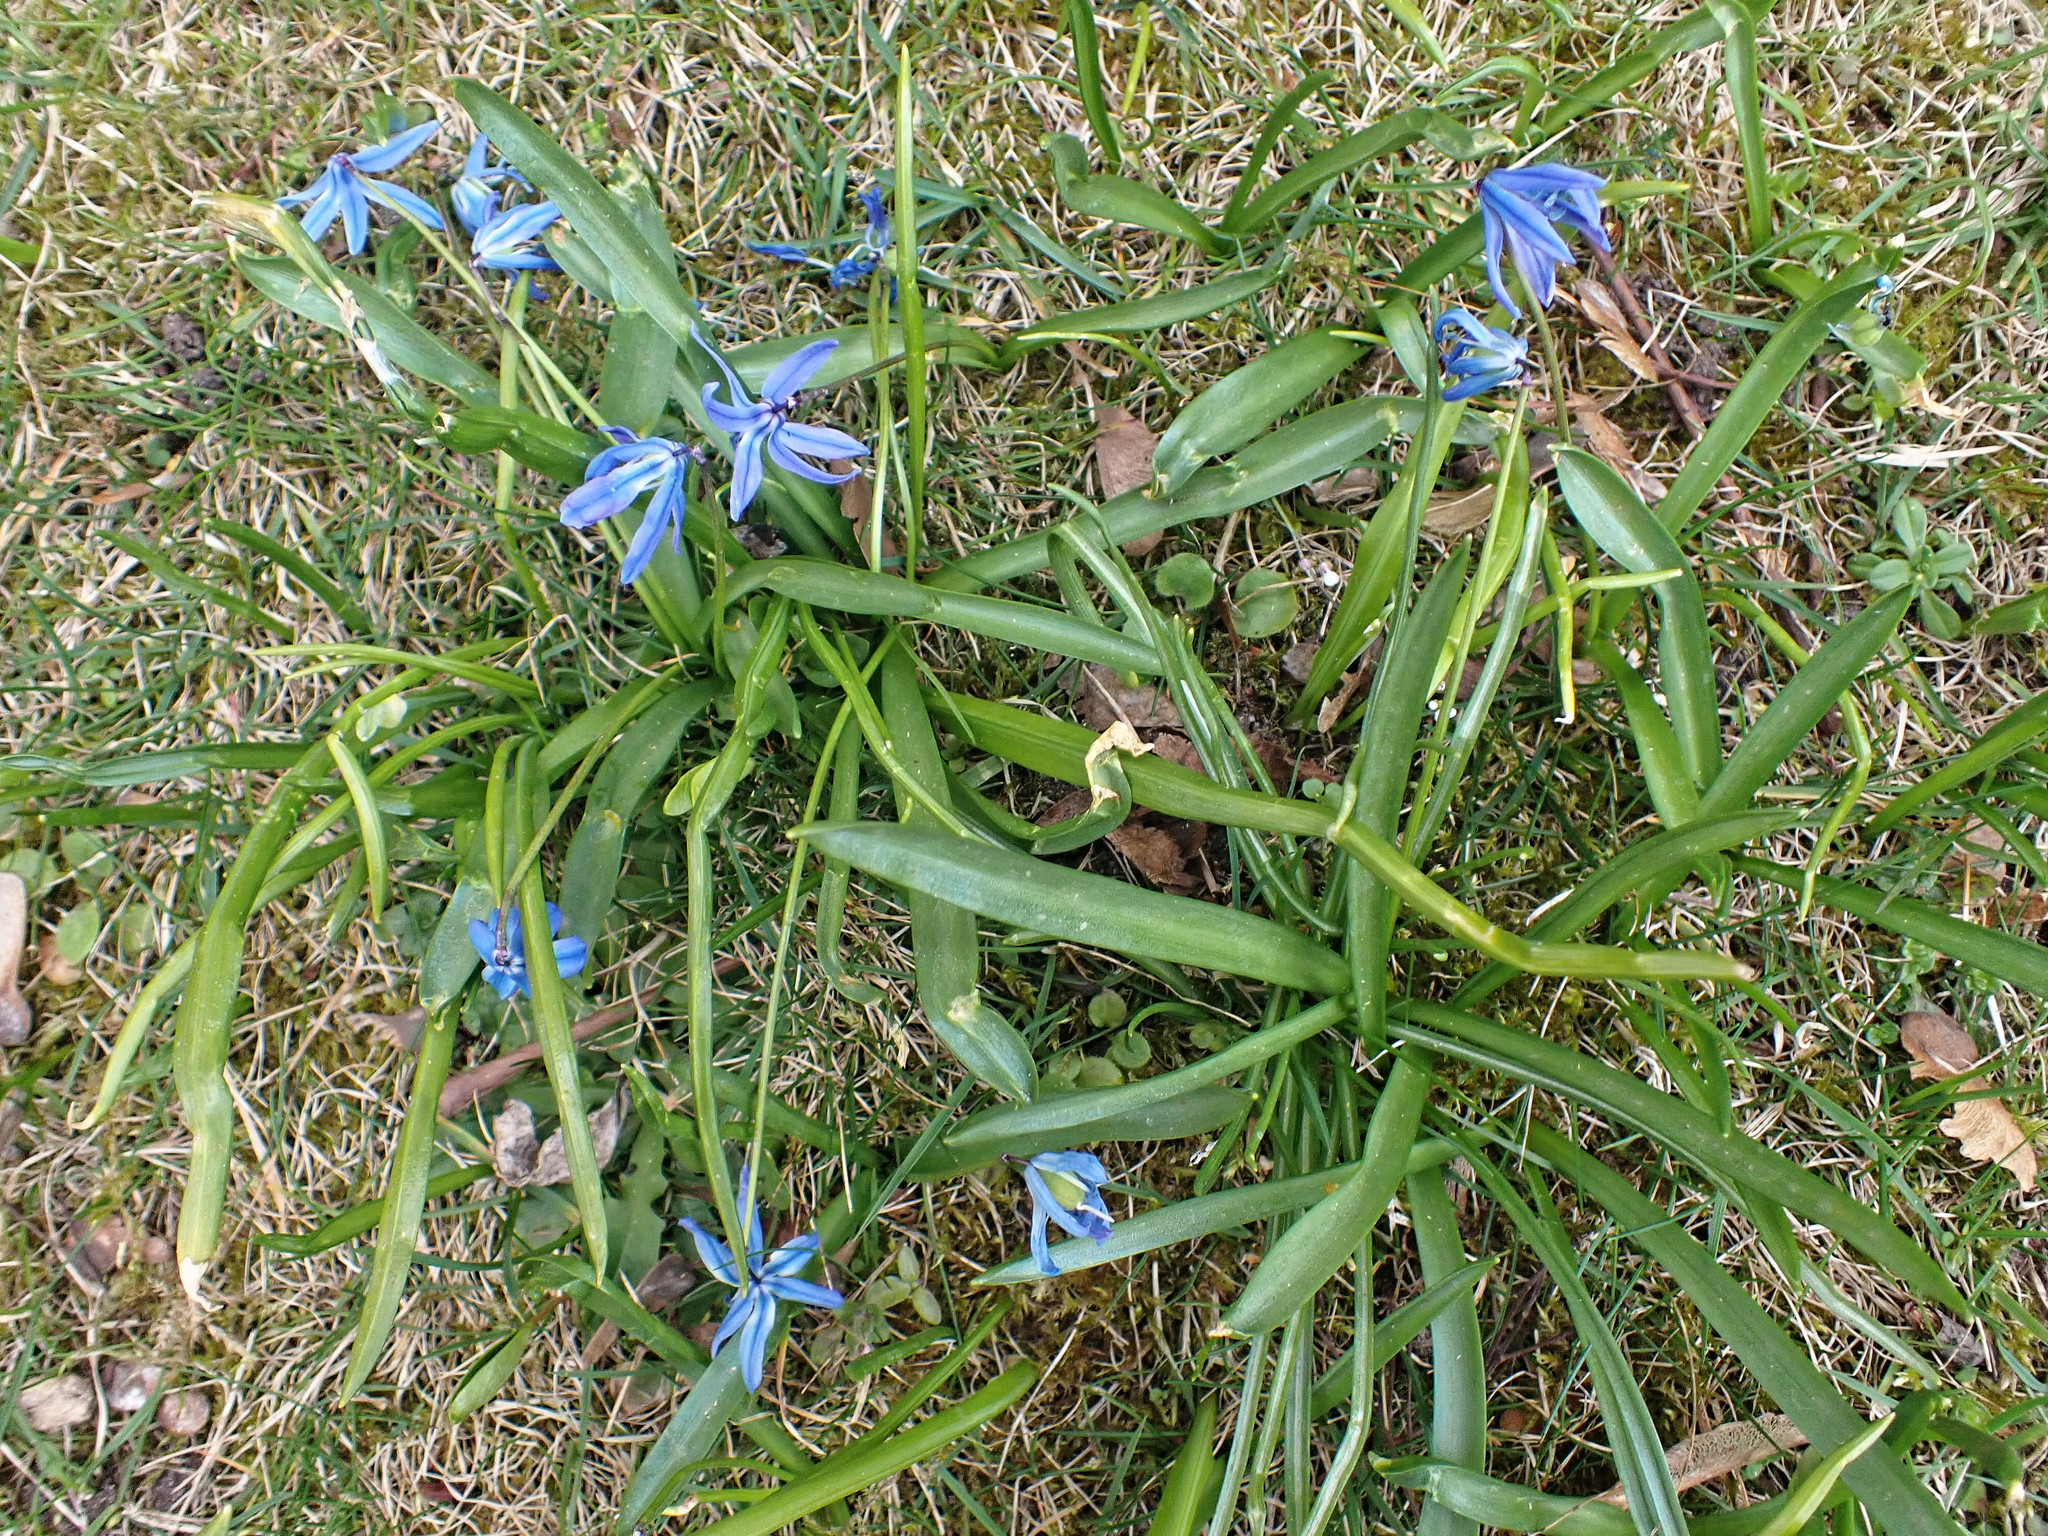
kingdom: Plantae
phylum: Tracheophyta
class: Liliopsida
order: Asparagales
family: Asparagaceae
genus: Scilla
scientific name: Scilla siberica
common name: Siberian squill
